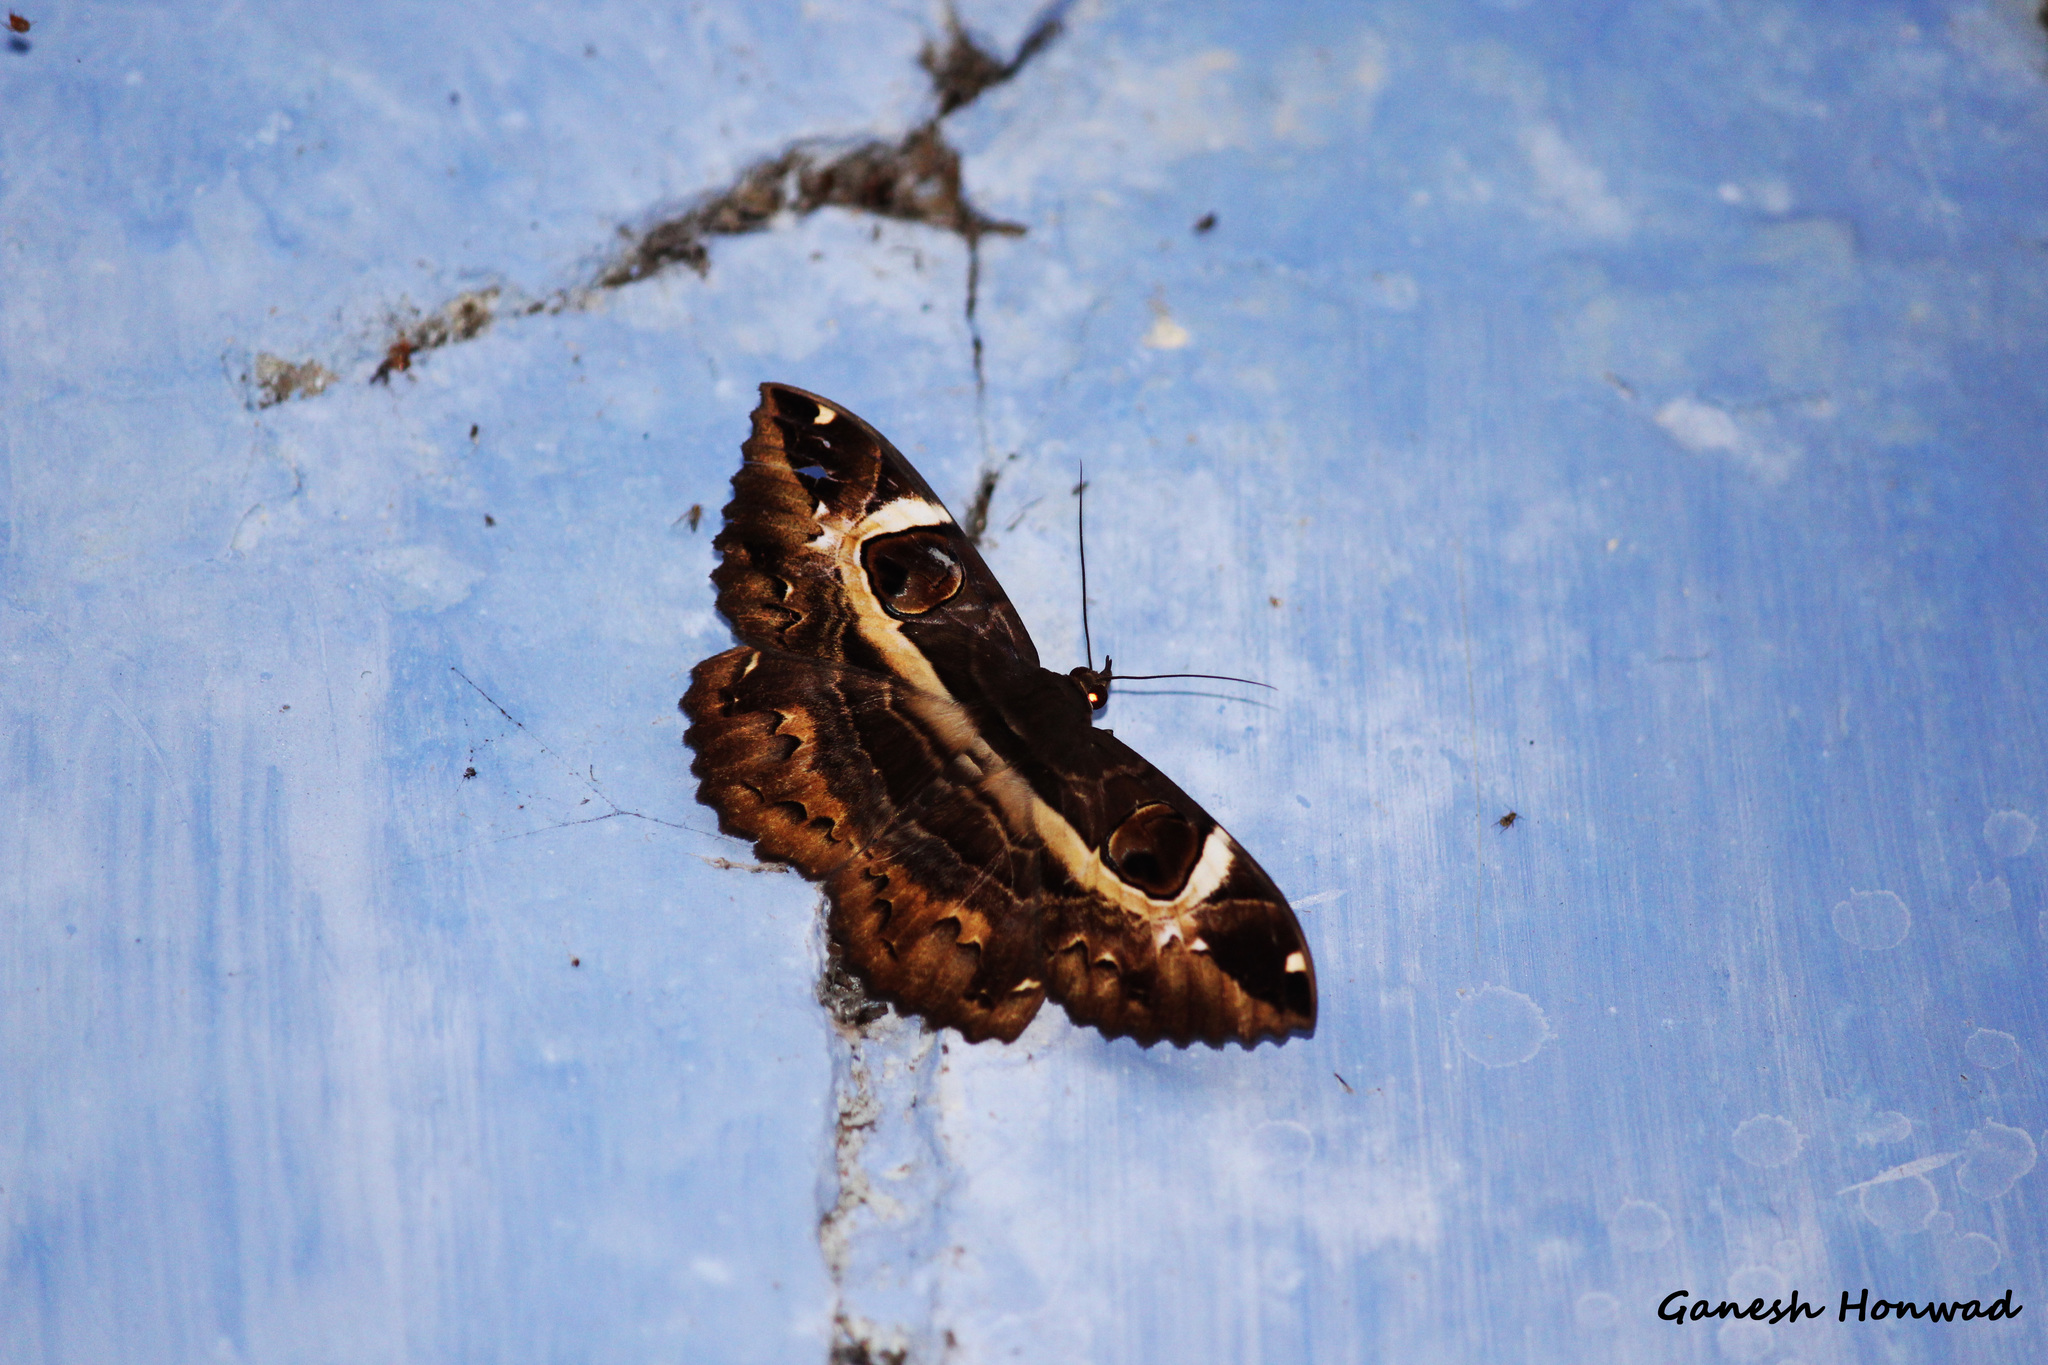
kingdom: Animalia
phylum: Arthropoda
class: Insecta
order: Lepidoptera
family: Erebidae
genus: Erebus
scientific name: Erebus ephesperis
